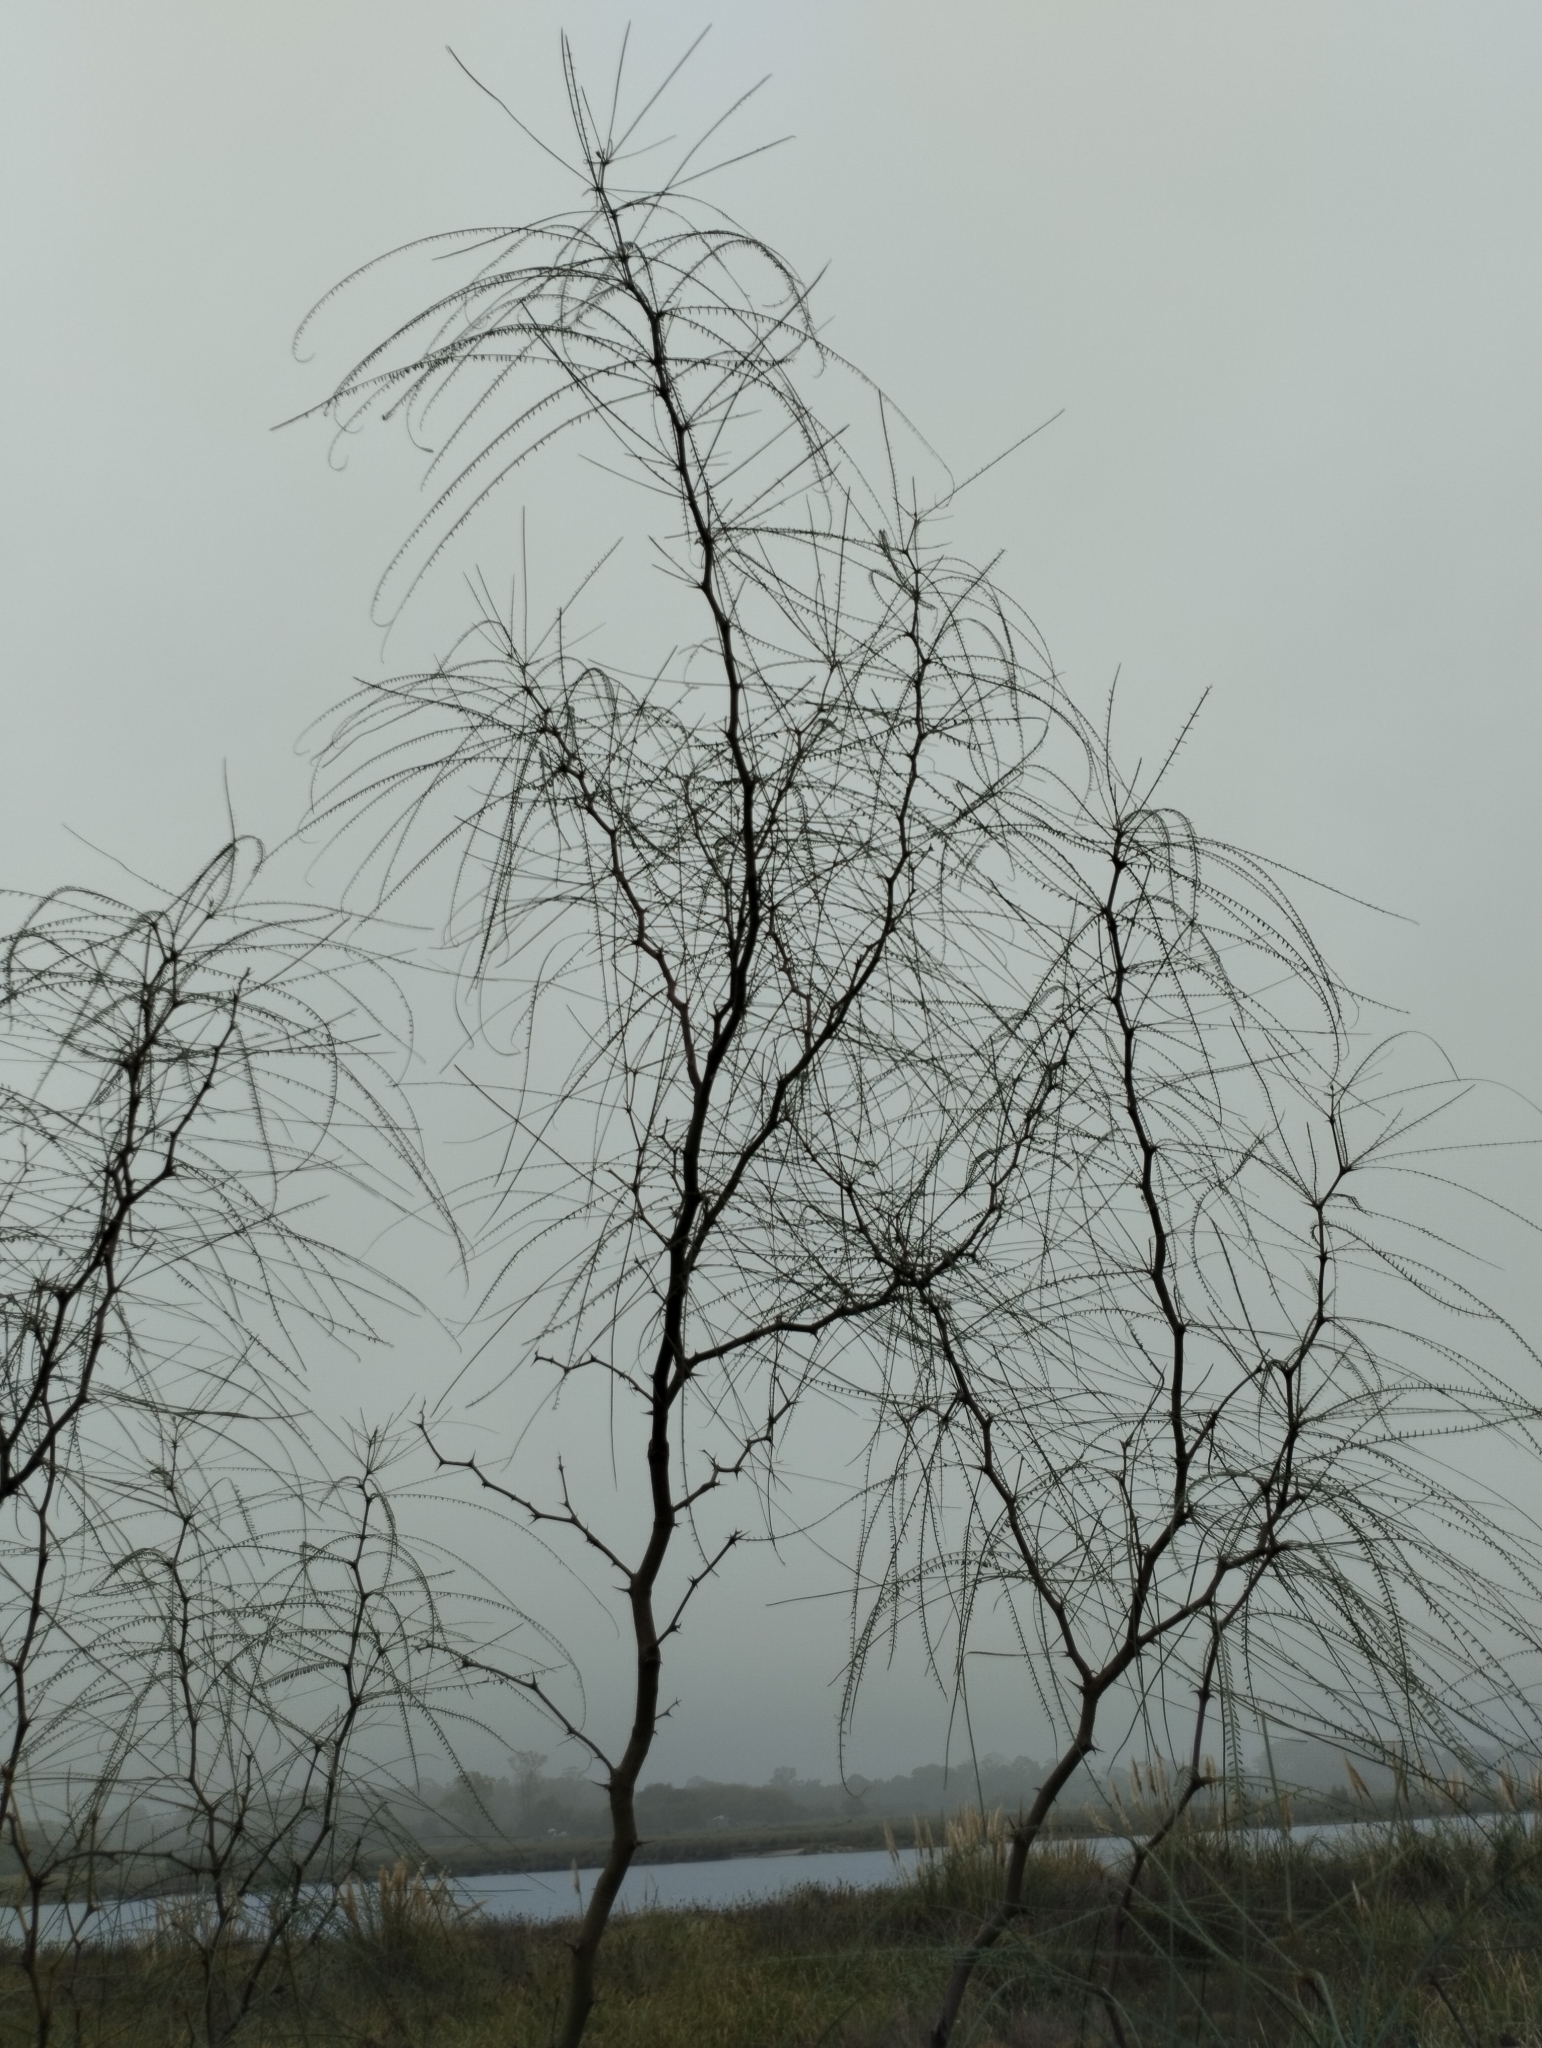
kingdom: Plantae
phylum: Tracheophyta
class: Magnoliopsida
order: Fabales
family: Fabaceae
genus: Parkinsonia
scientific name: Parkinsonia aculeata
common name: Jerusalem thorn
